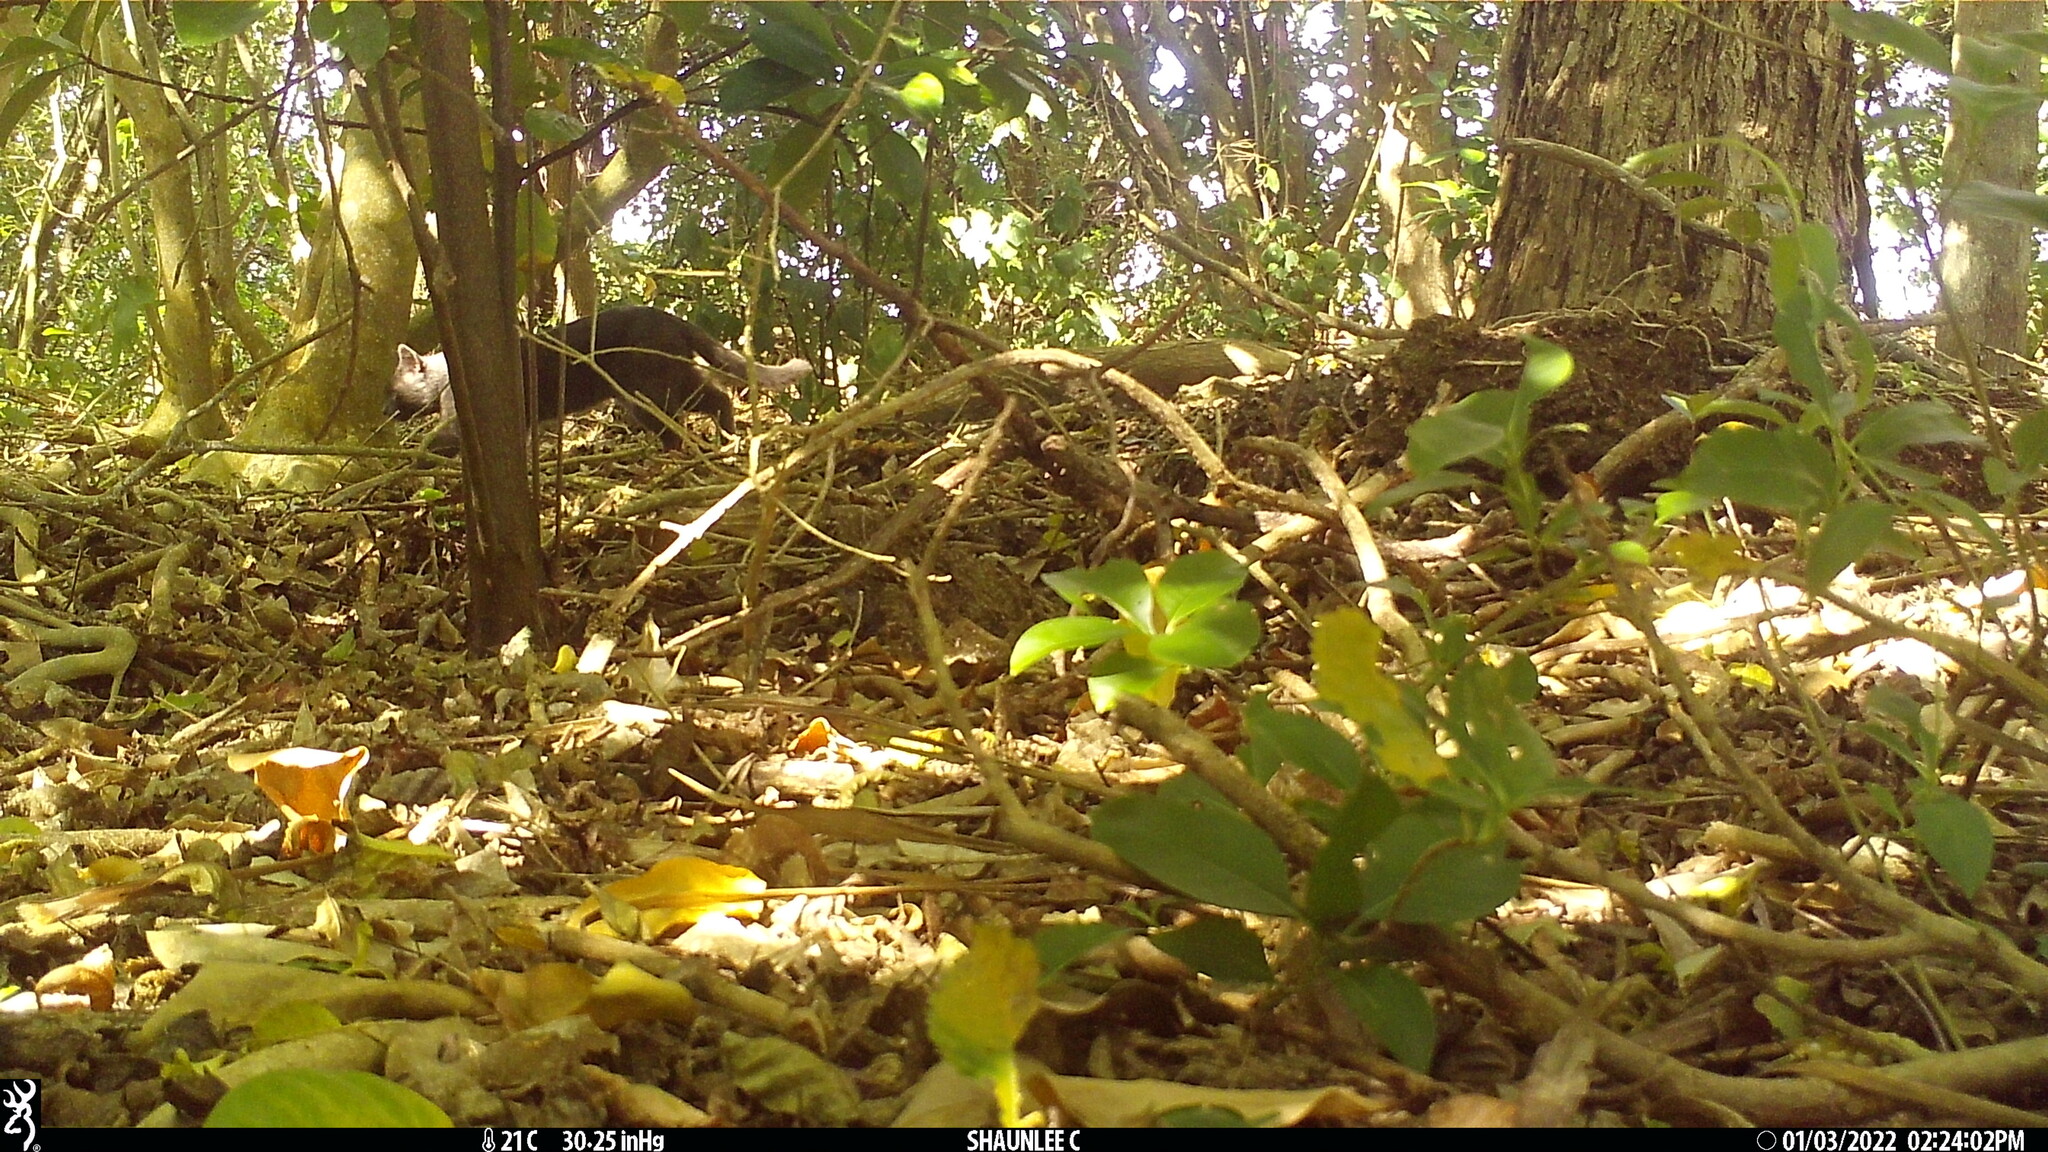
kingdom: Animalia
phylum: Chordata
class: Mammalia
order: Carnivora
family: Felidae
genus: Felis
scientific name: Felis catus
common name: Domestic cat
